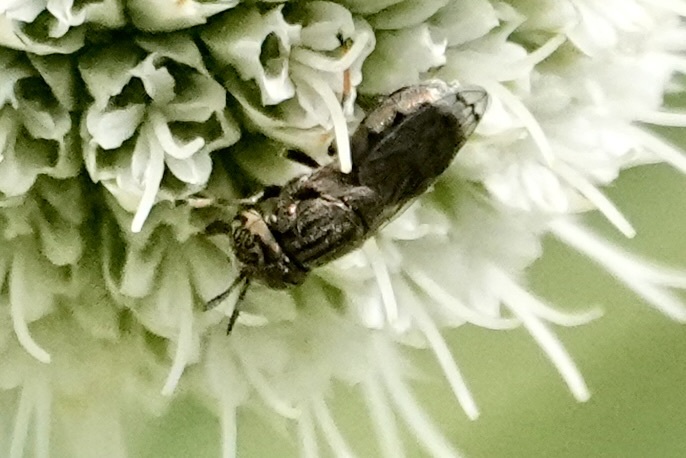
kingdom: Animalia
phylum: Arthropoda
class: Insecta
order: Diptera
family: Syrphidae
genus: Orthonevra
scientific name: Orthonevra nitida
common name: Wavy mucksucker
